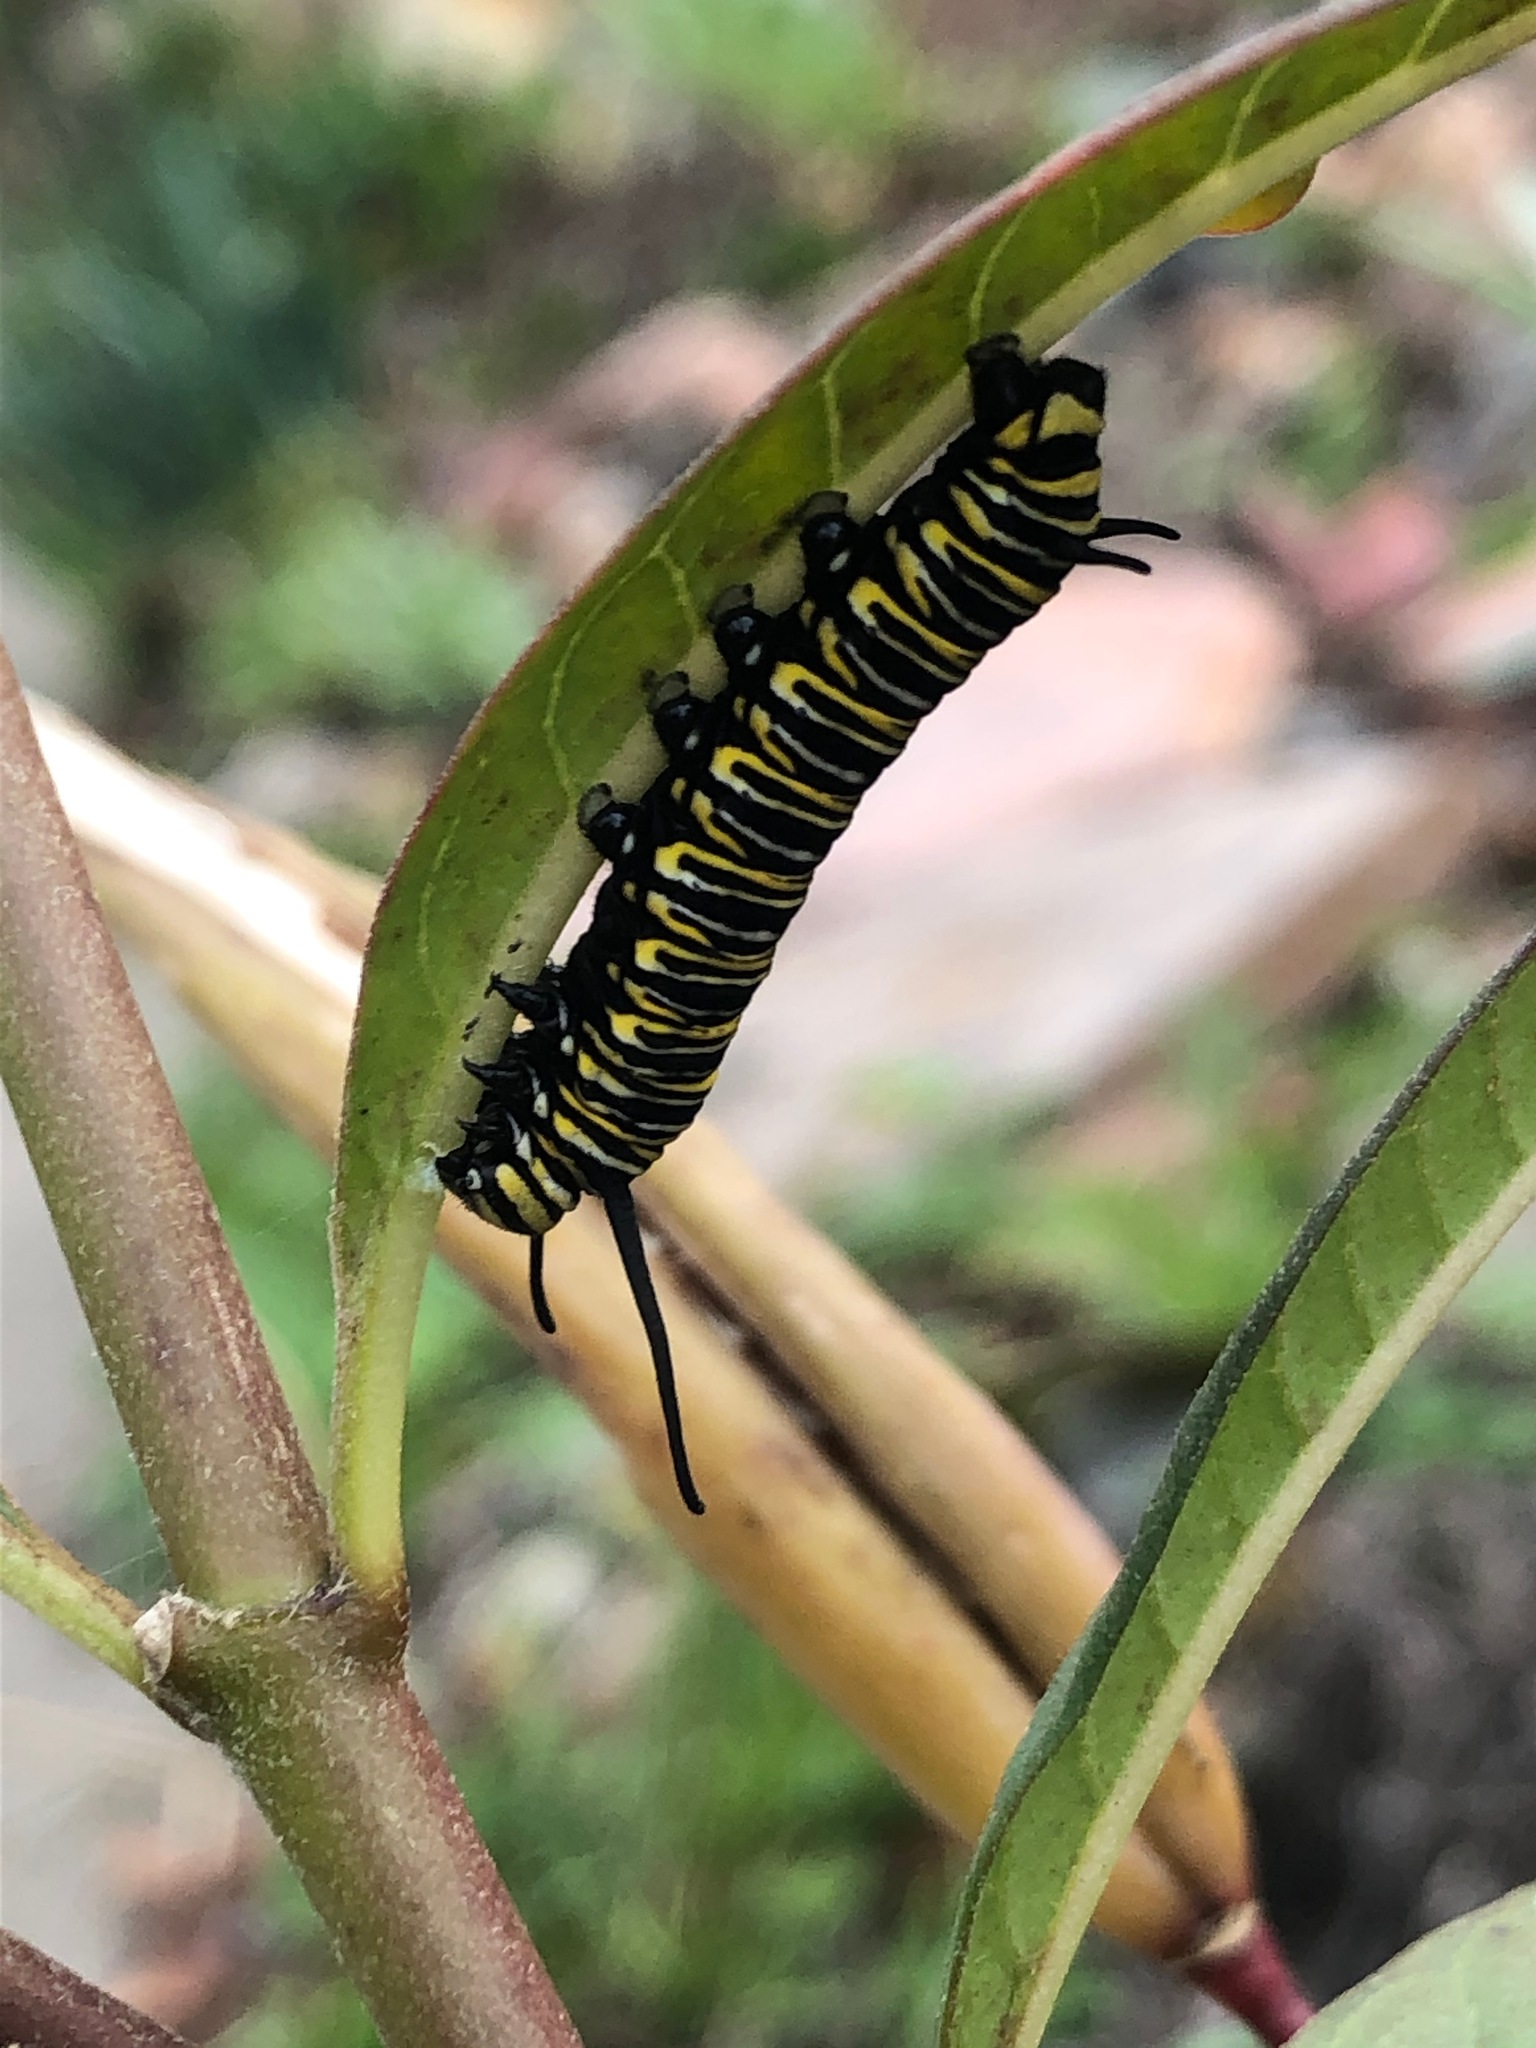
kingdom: Animalia
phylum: Arthropoda
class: Insecta
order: Lepidoptera
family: Nymphalidae
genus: Danaus
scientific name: Danaus plexippus
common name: Monarch
